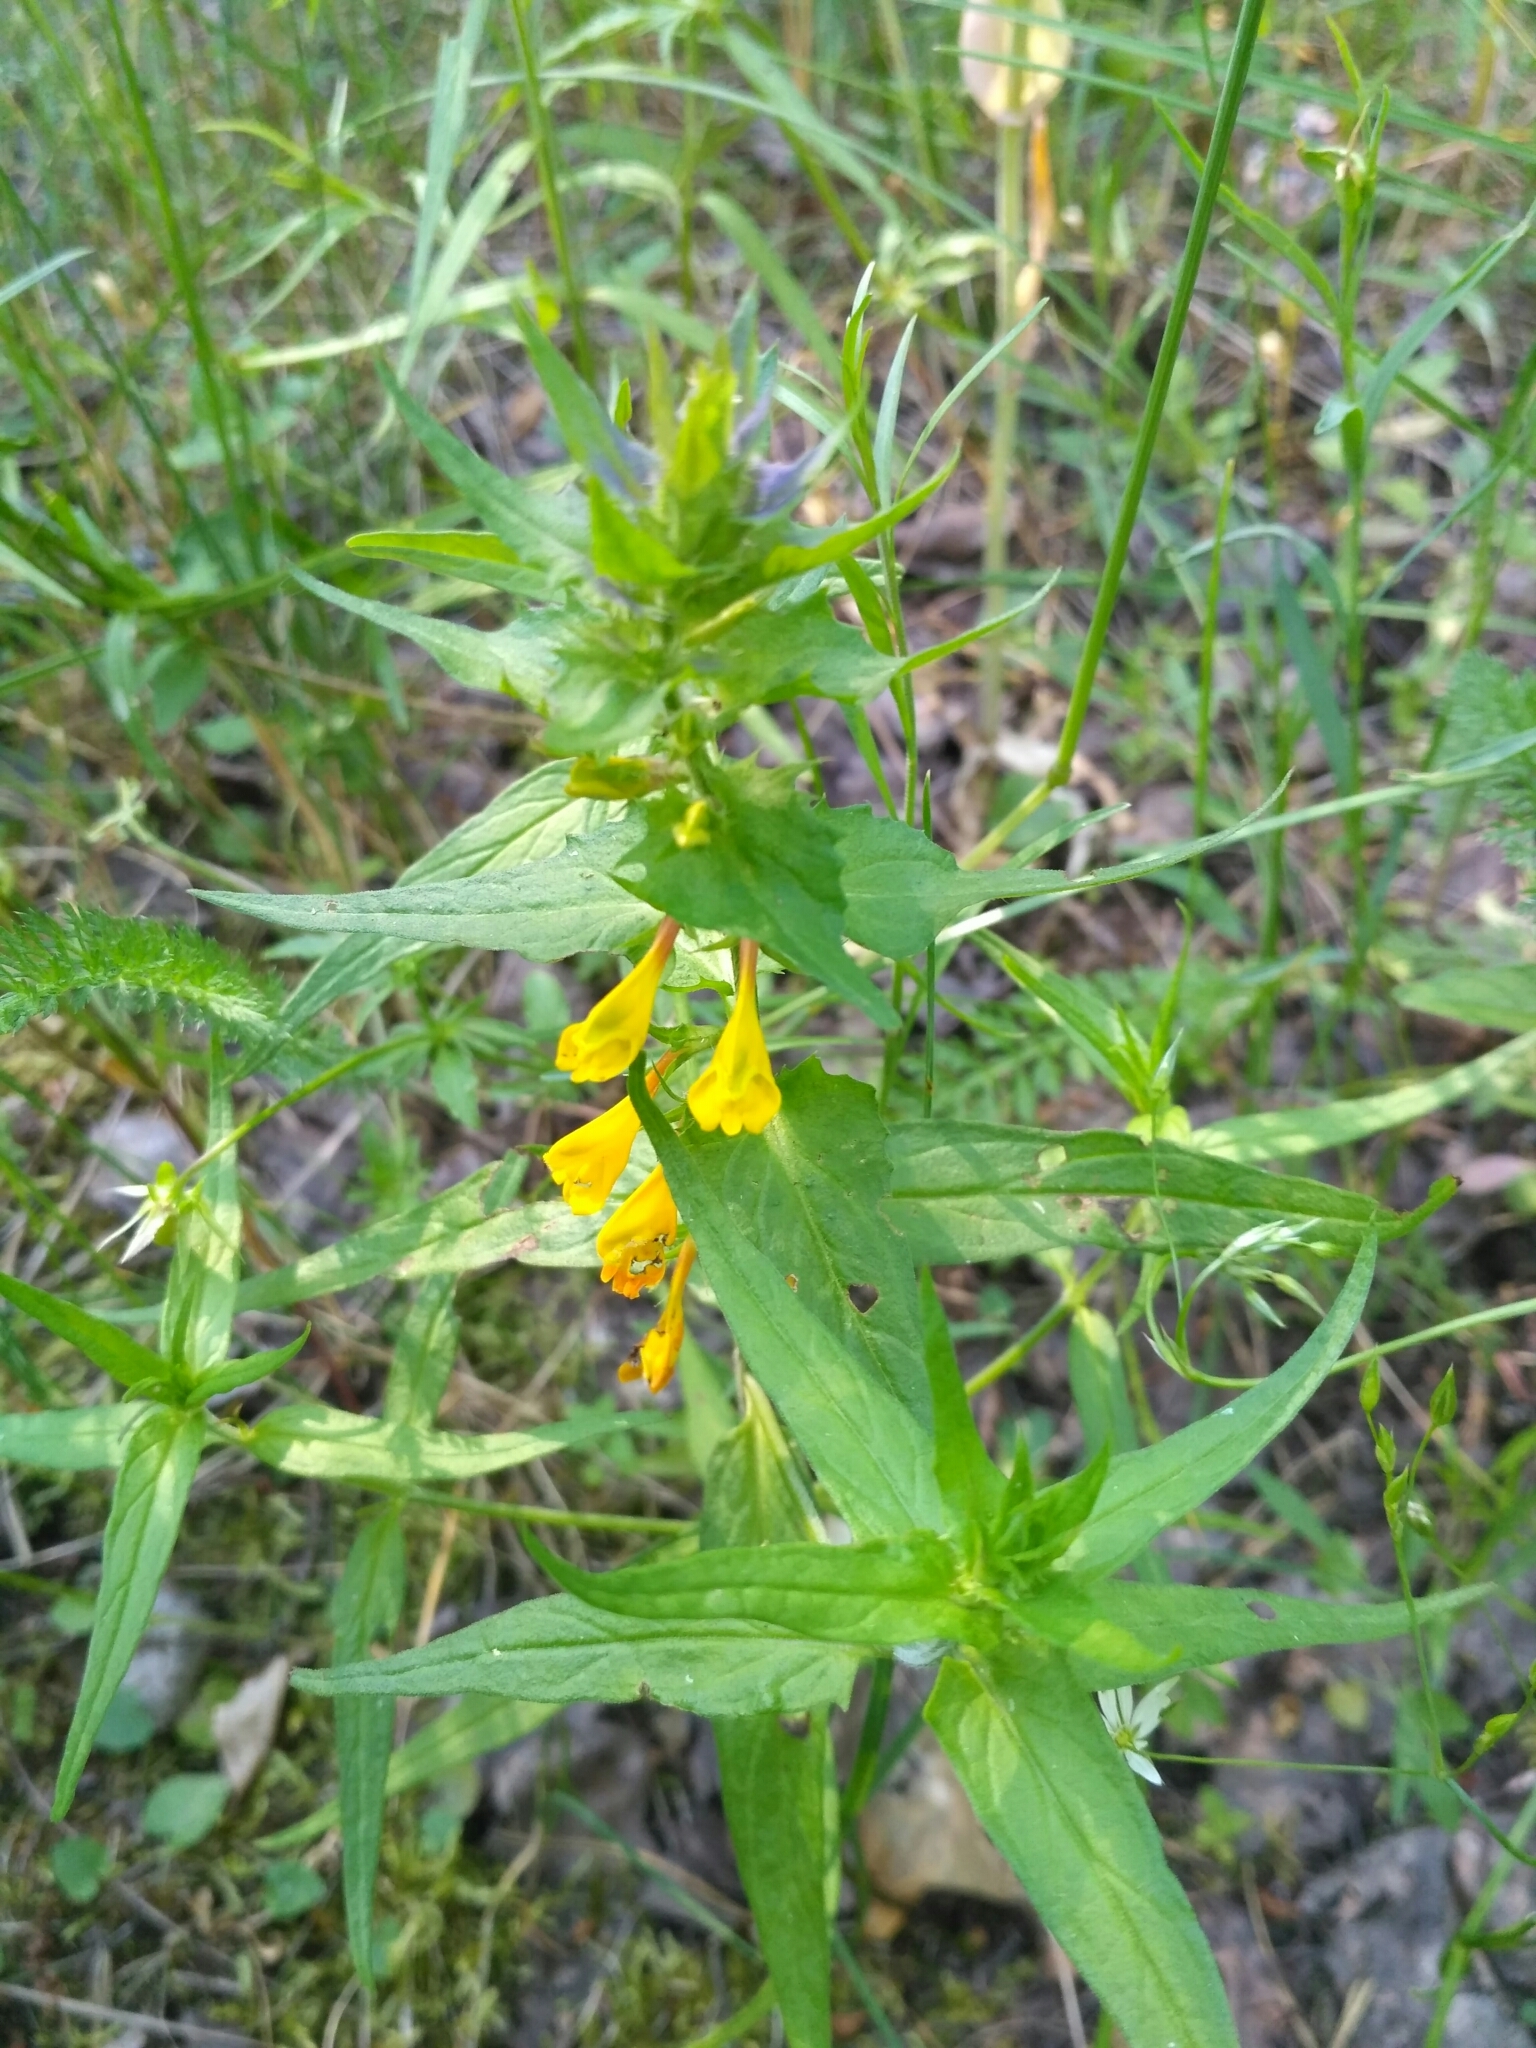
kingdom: Plantae
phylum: Tracheophyta
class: Magnoliopsida
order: Lamiales
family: Orobanchaceae
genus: Melampyrum
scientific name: Melampyrum nemorosum
